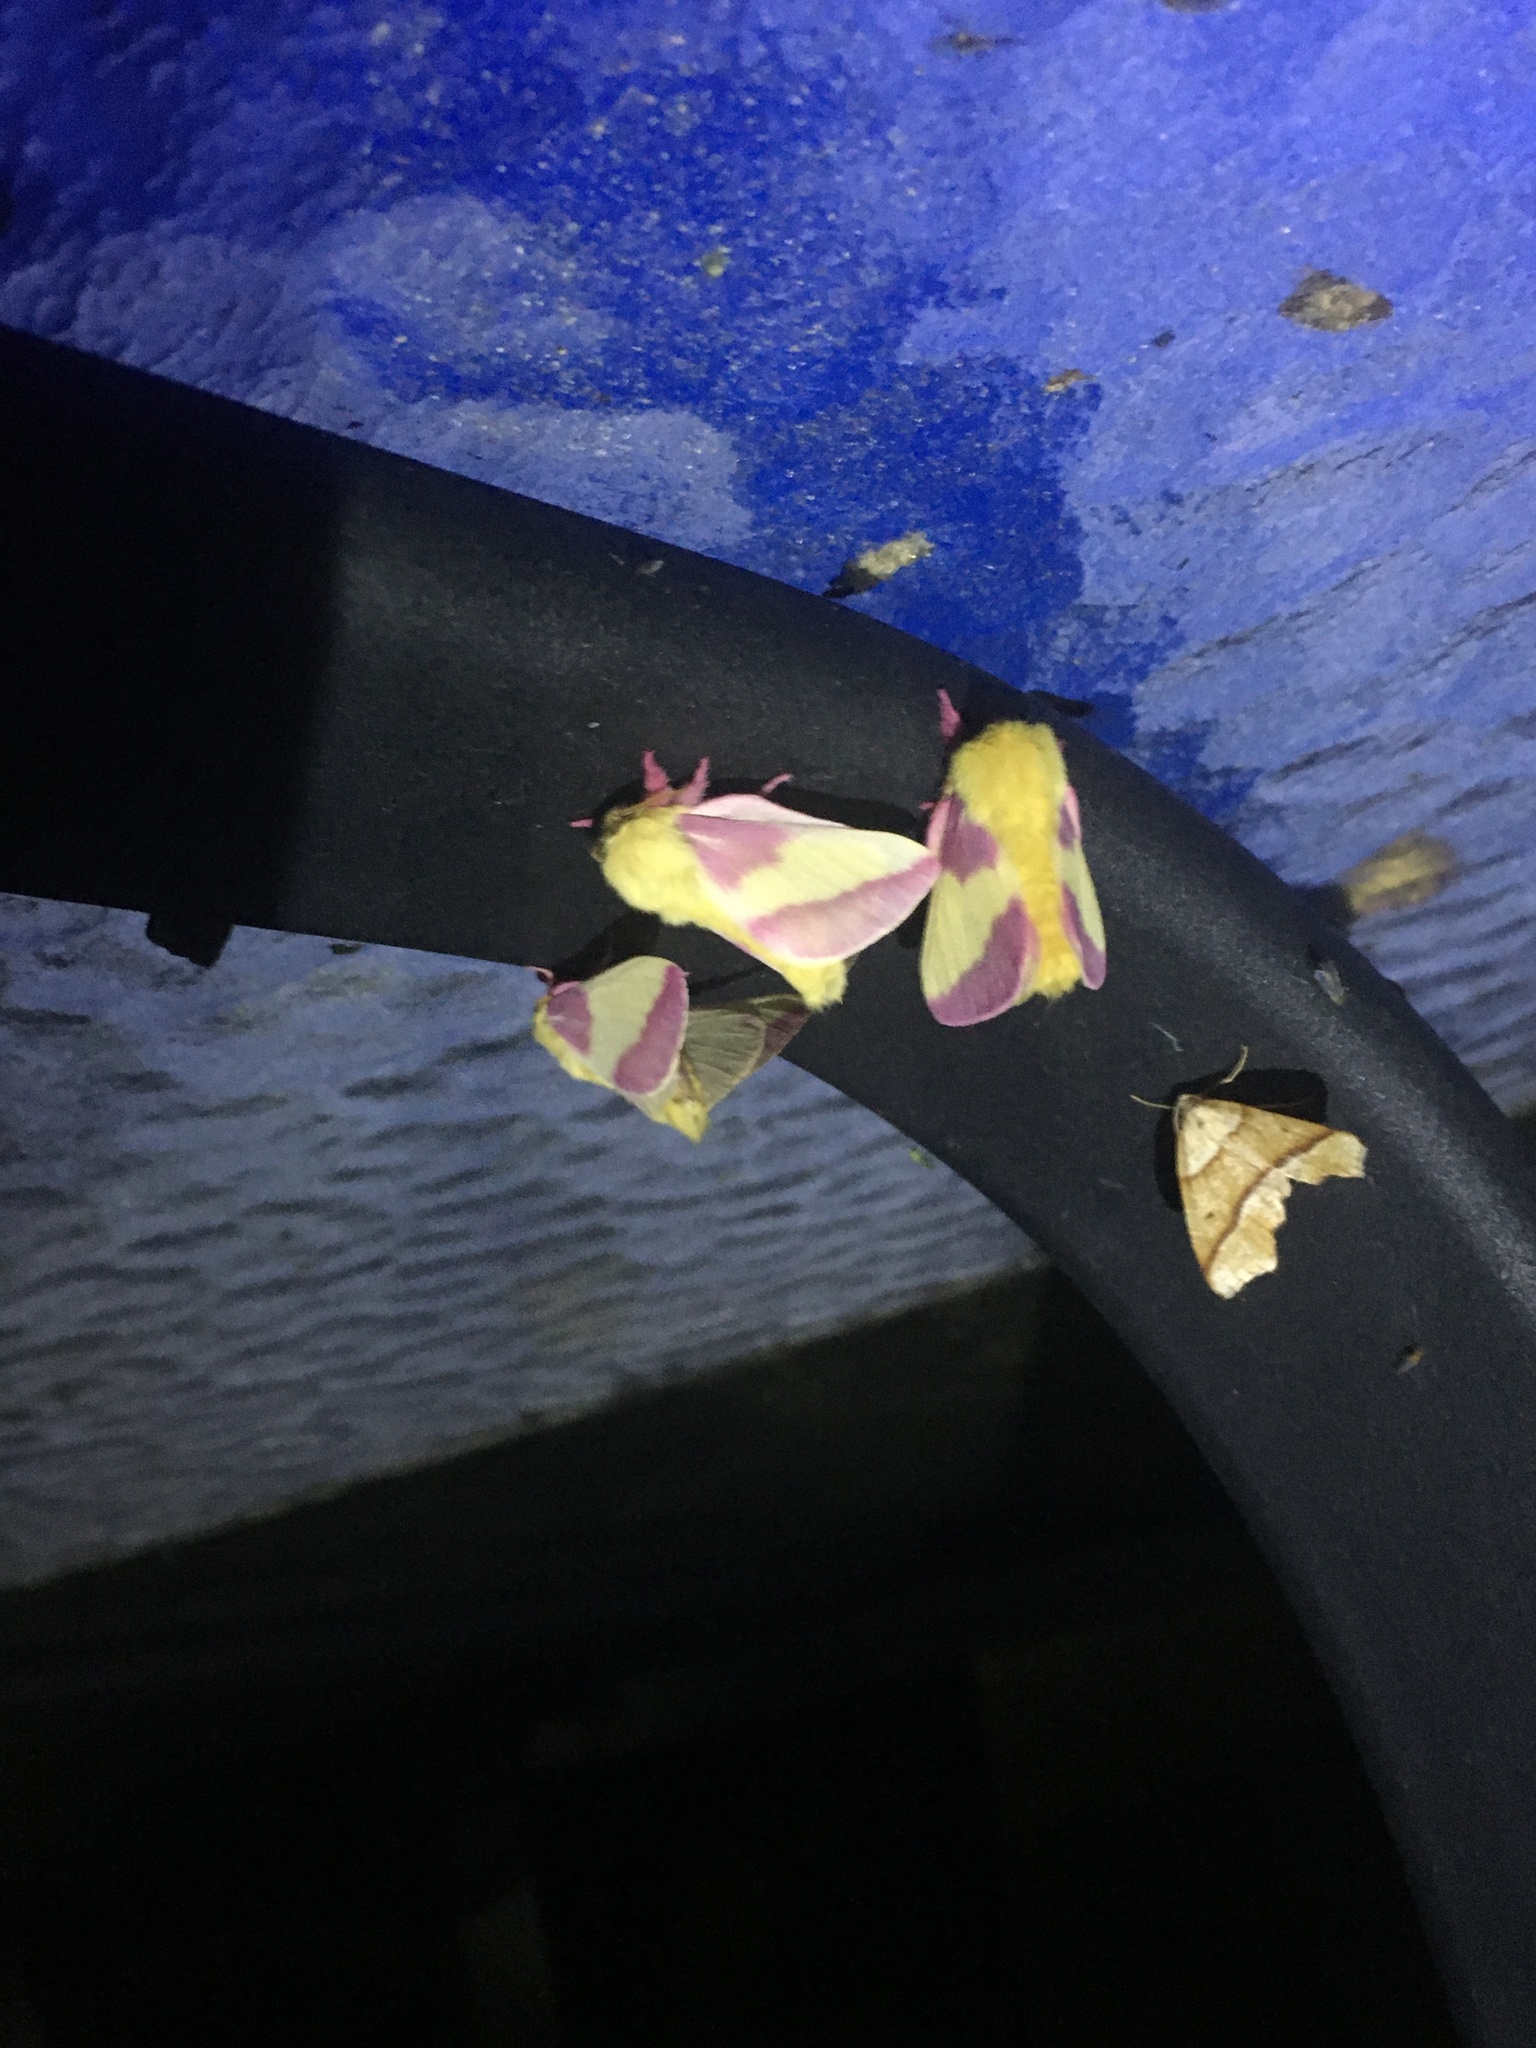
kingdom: Animalia
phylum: Arthropoda
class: Insecta
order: Lepidoptera
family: Saturniidae
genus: Dryocampa
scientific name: Dryocampa rubicunda
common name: Rosy maple moth
